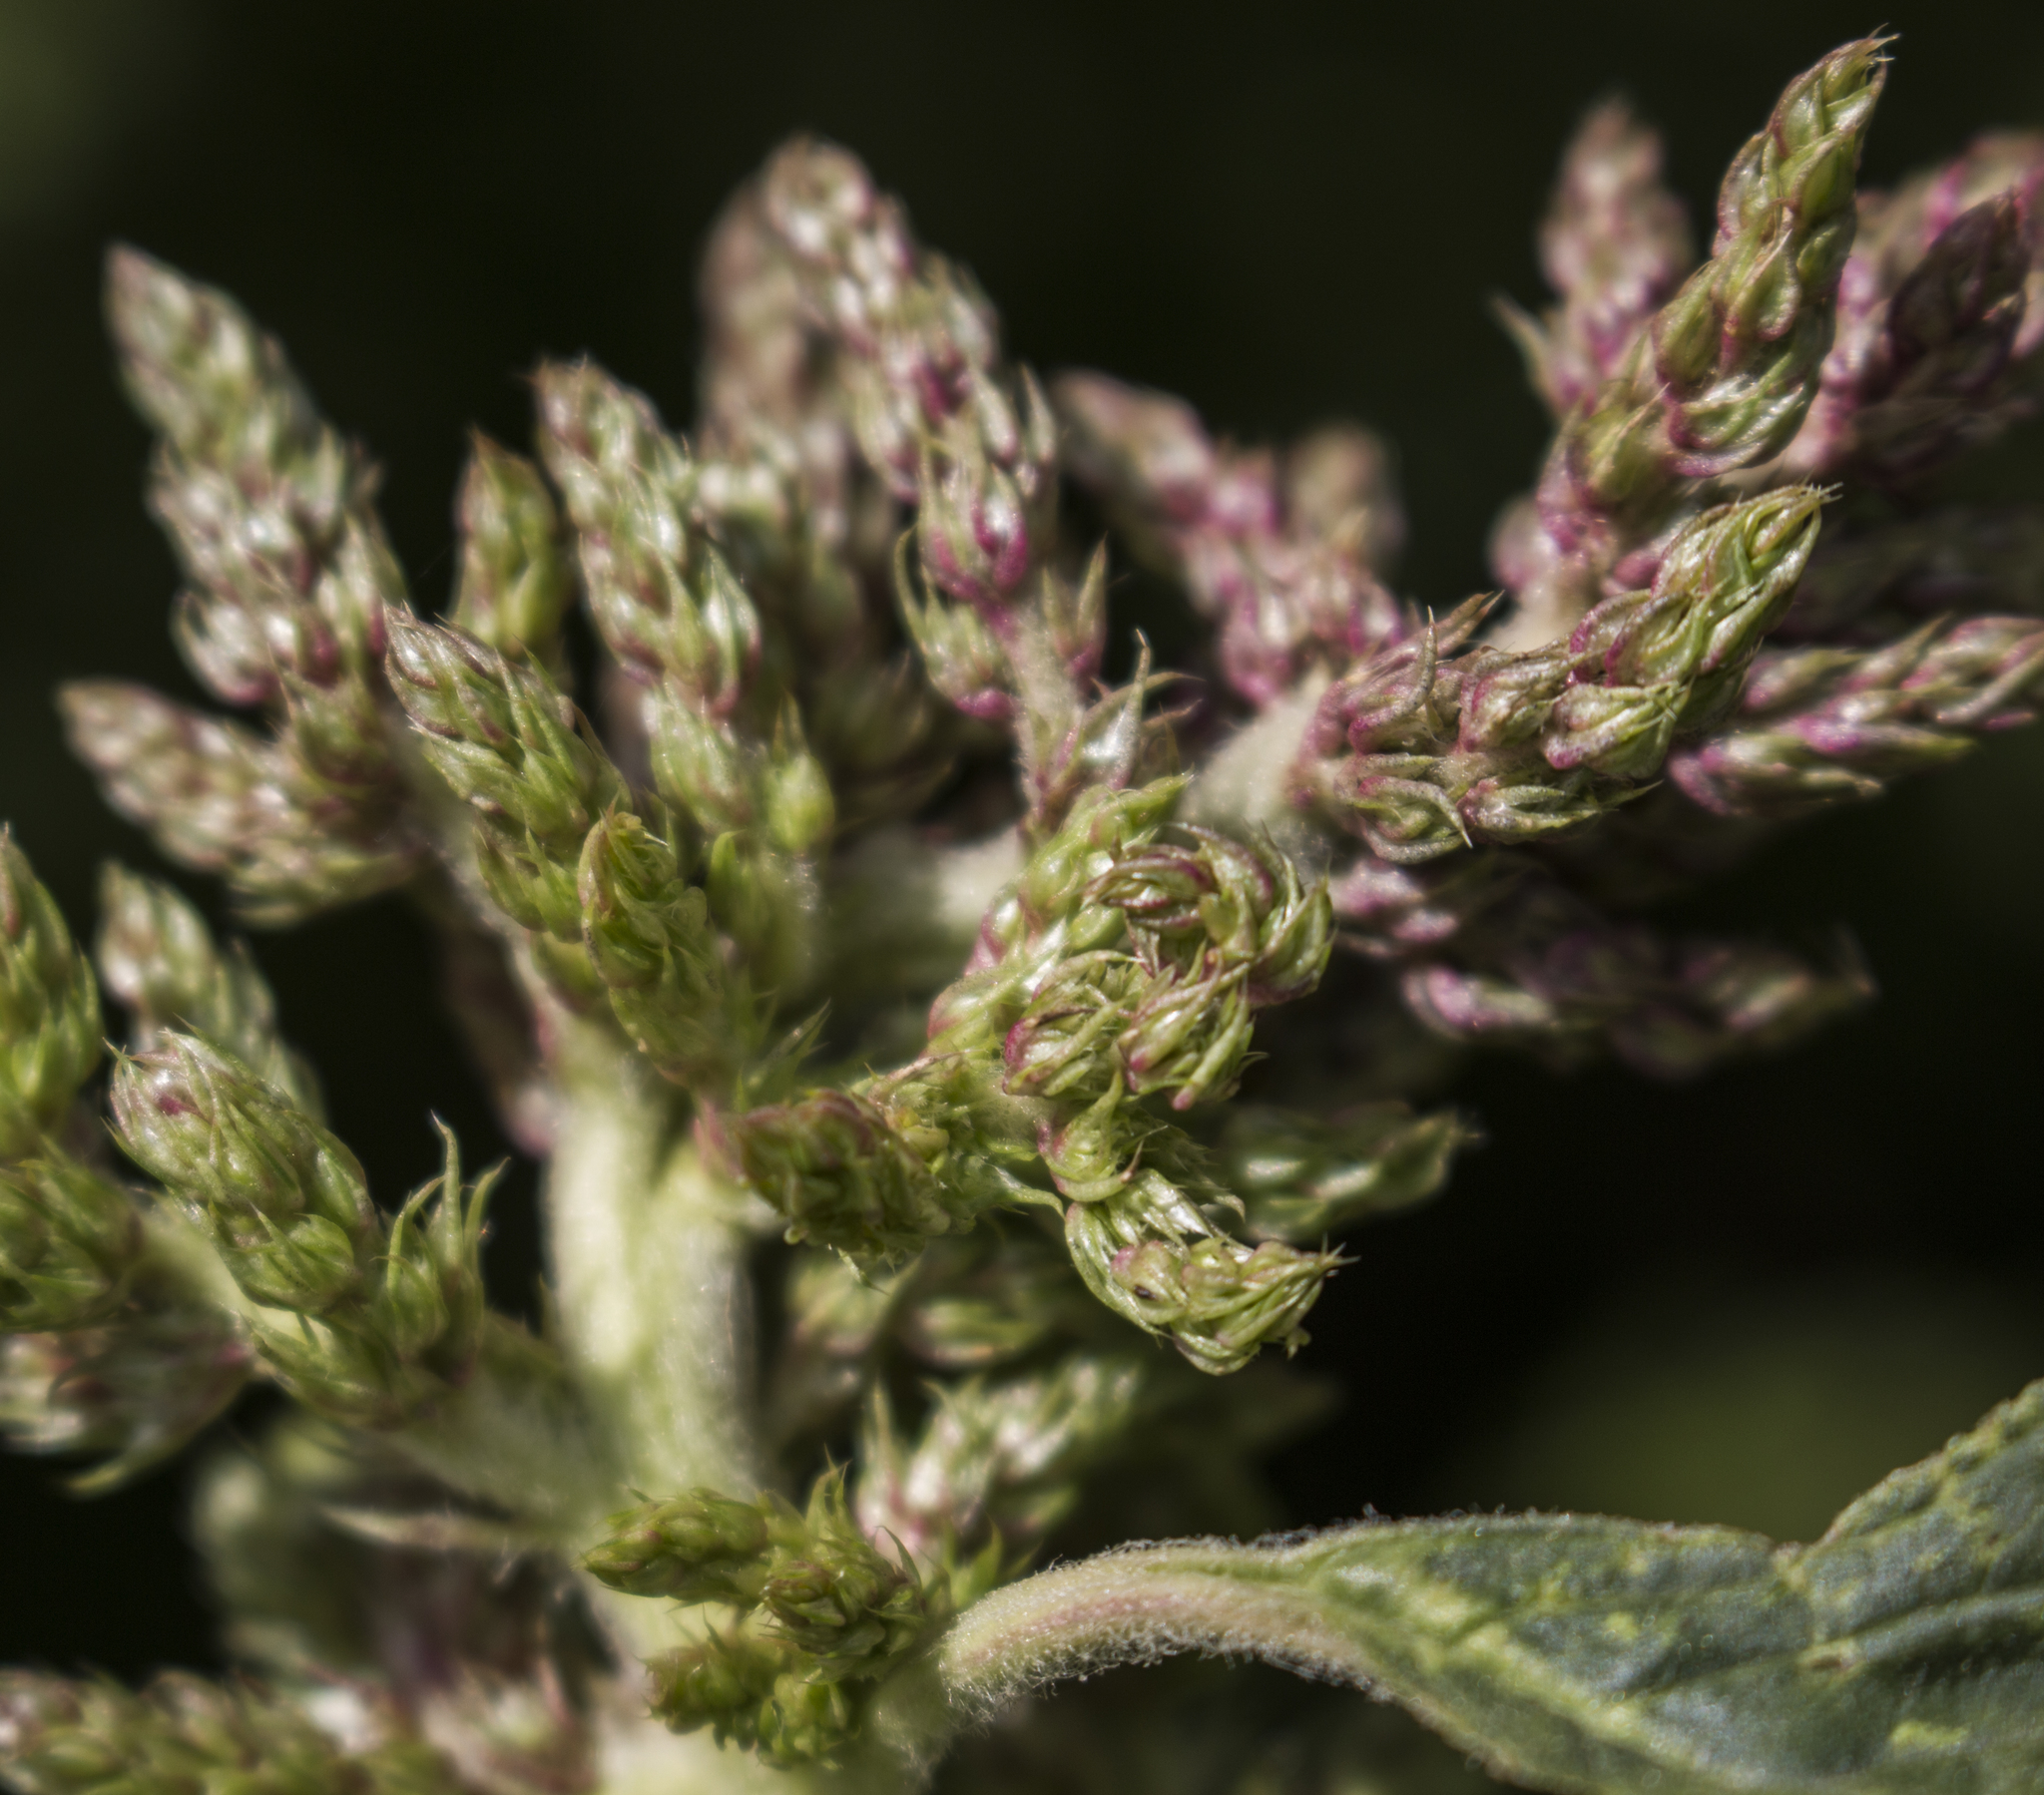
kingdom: Plantae
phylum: Tracheophyta
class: Magnoliopsida
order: Caryophyllales
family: Amaranthaceae
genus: Amaranthus
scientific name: Amaranthus retroflexus
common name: Redroot amaranth
